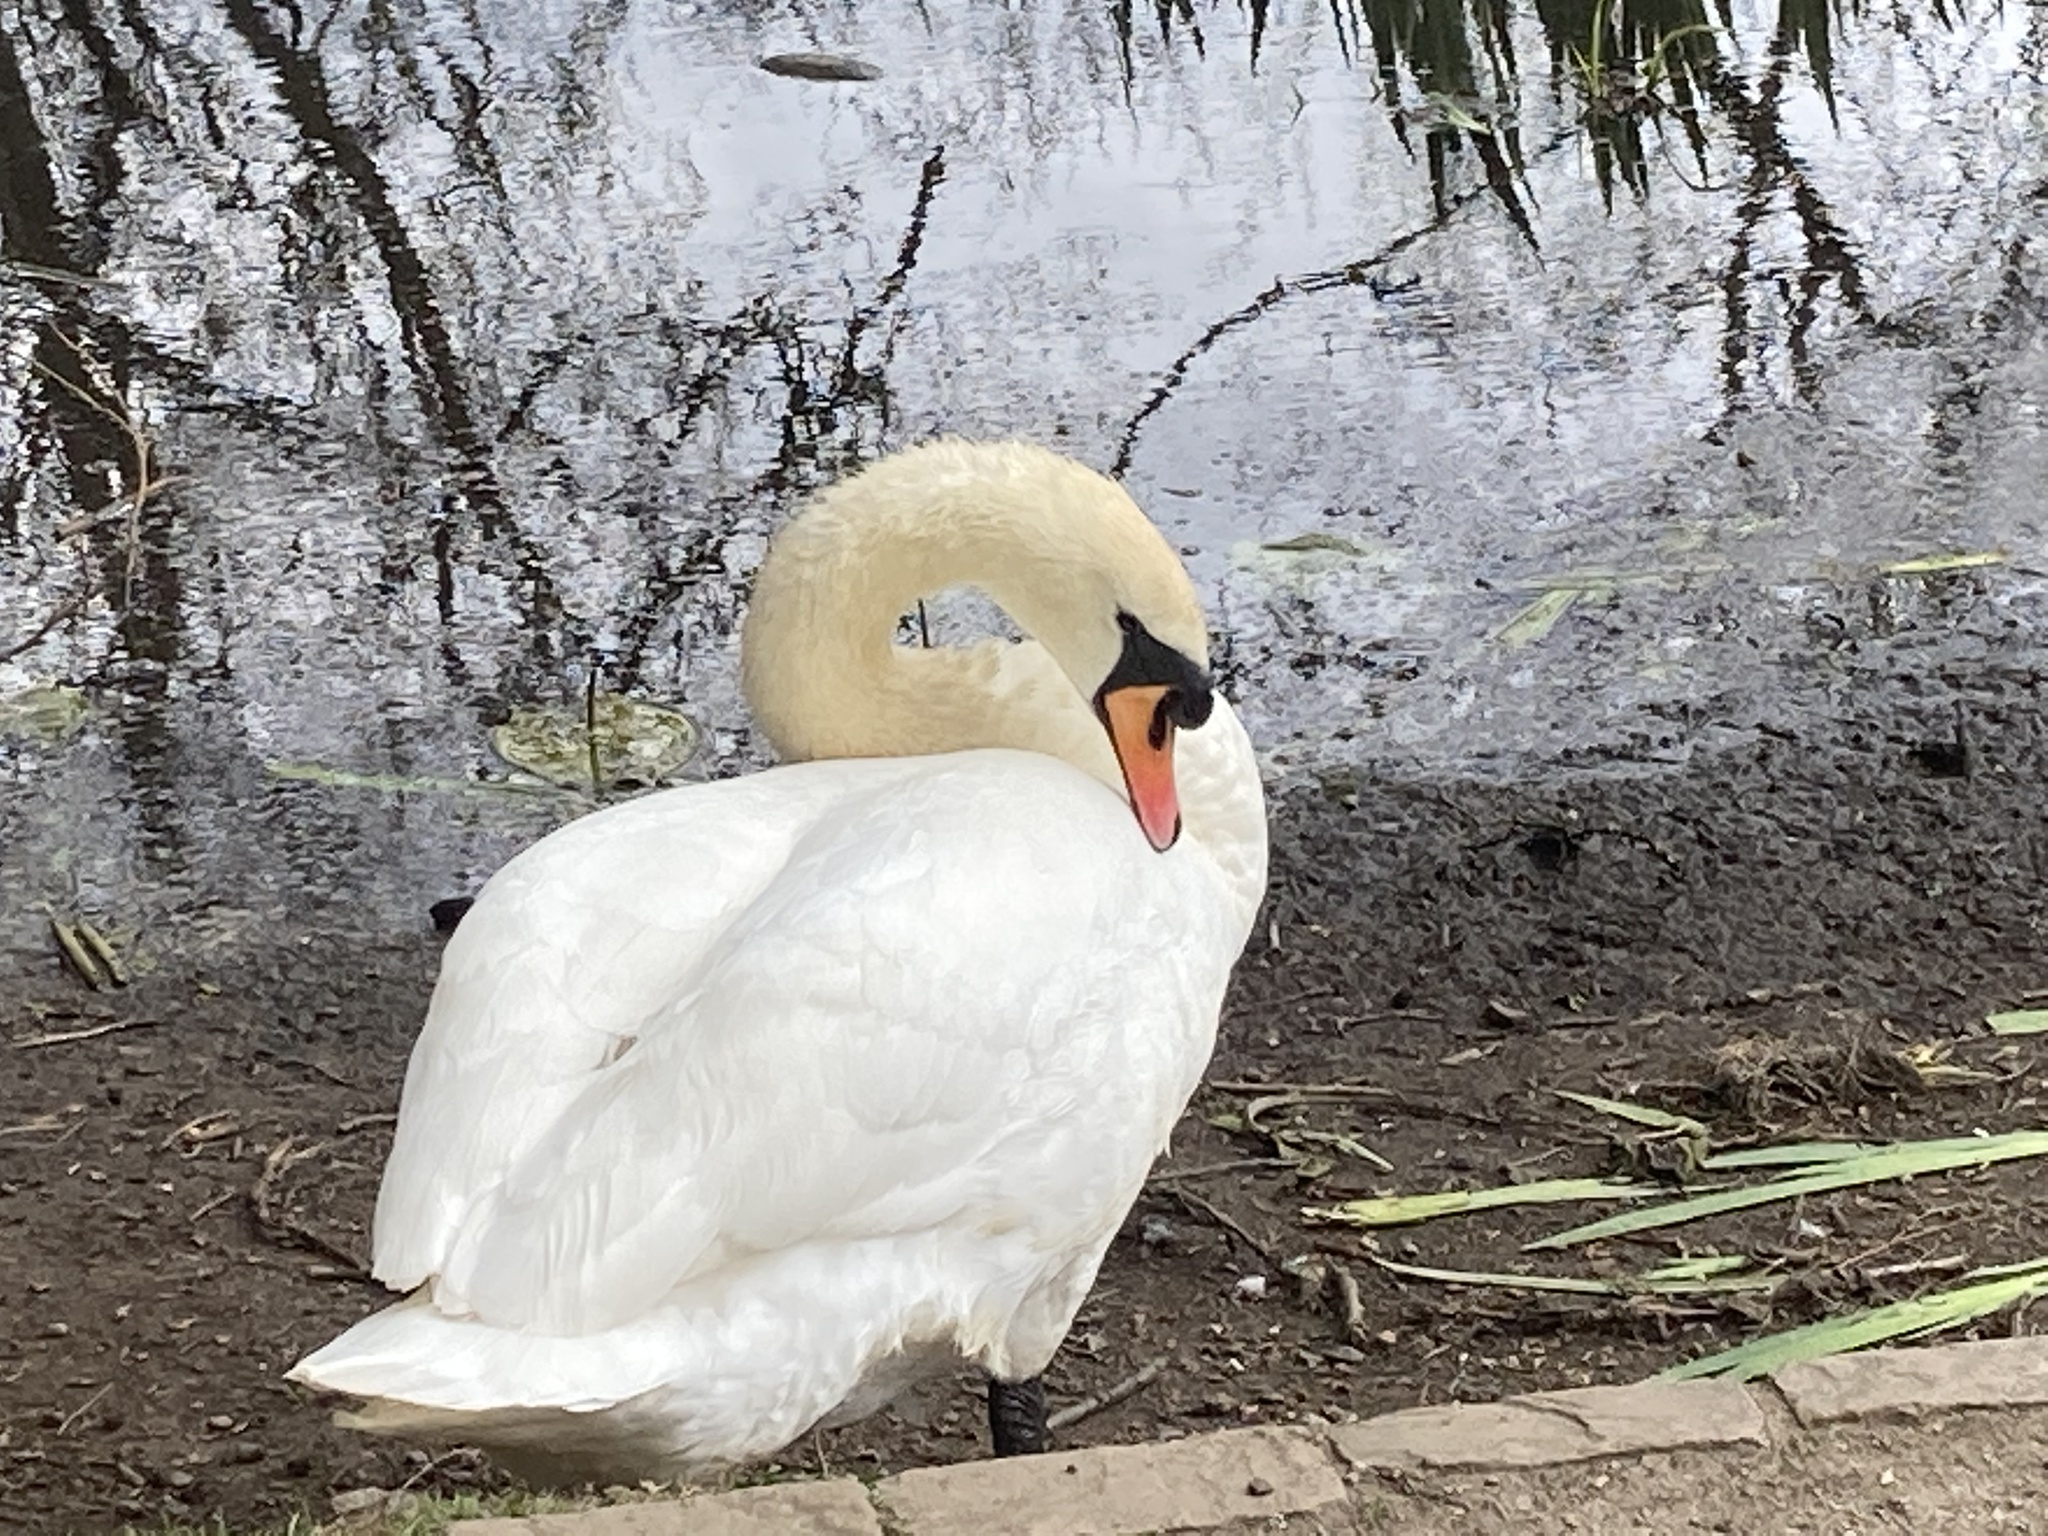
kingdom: Animalia
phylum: Chordata
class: Aves
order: Anseriformes
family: Anatidae
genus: Cygnus
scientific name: Cygnus olor
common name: Mute swan
